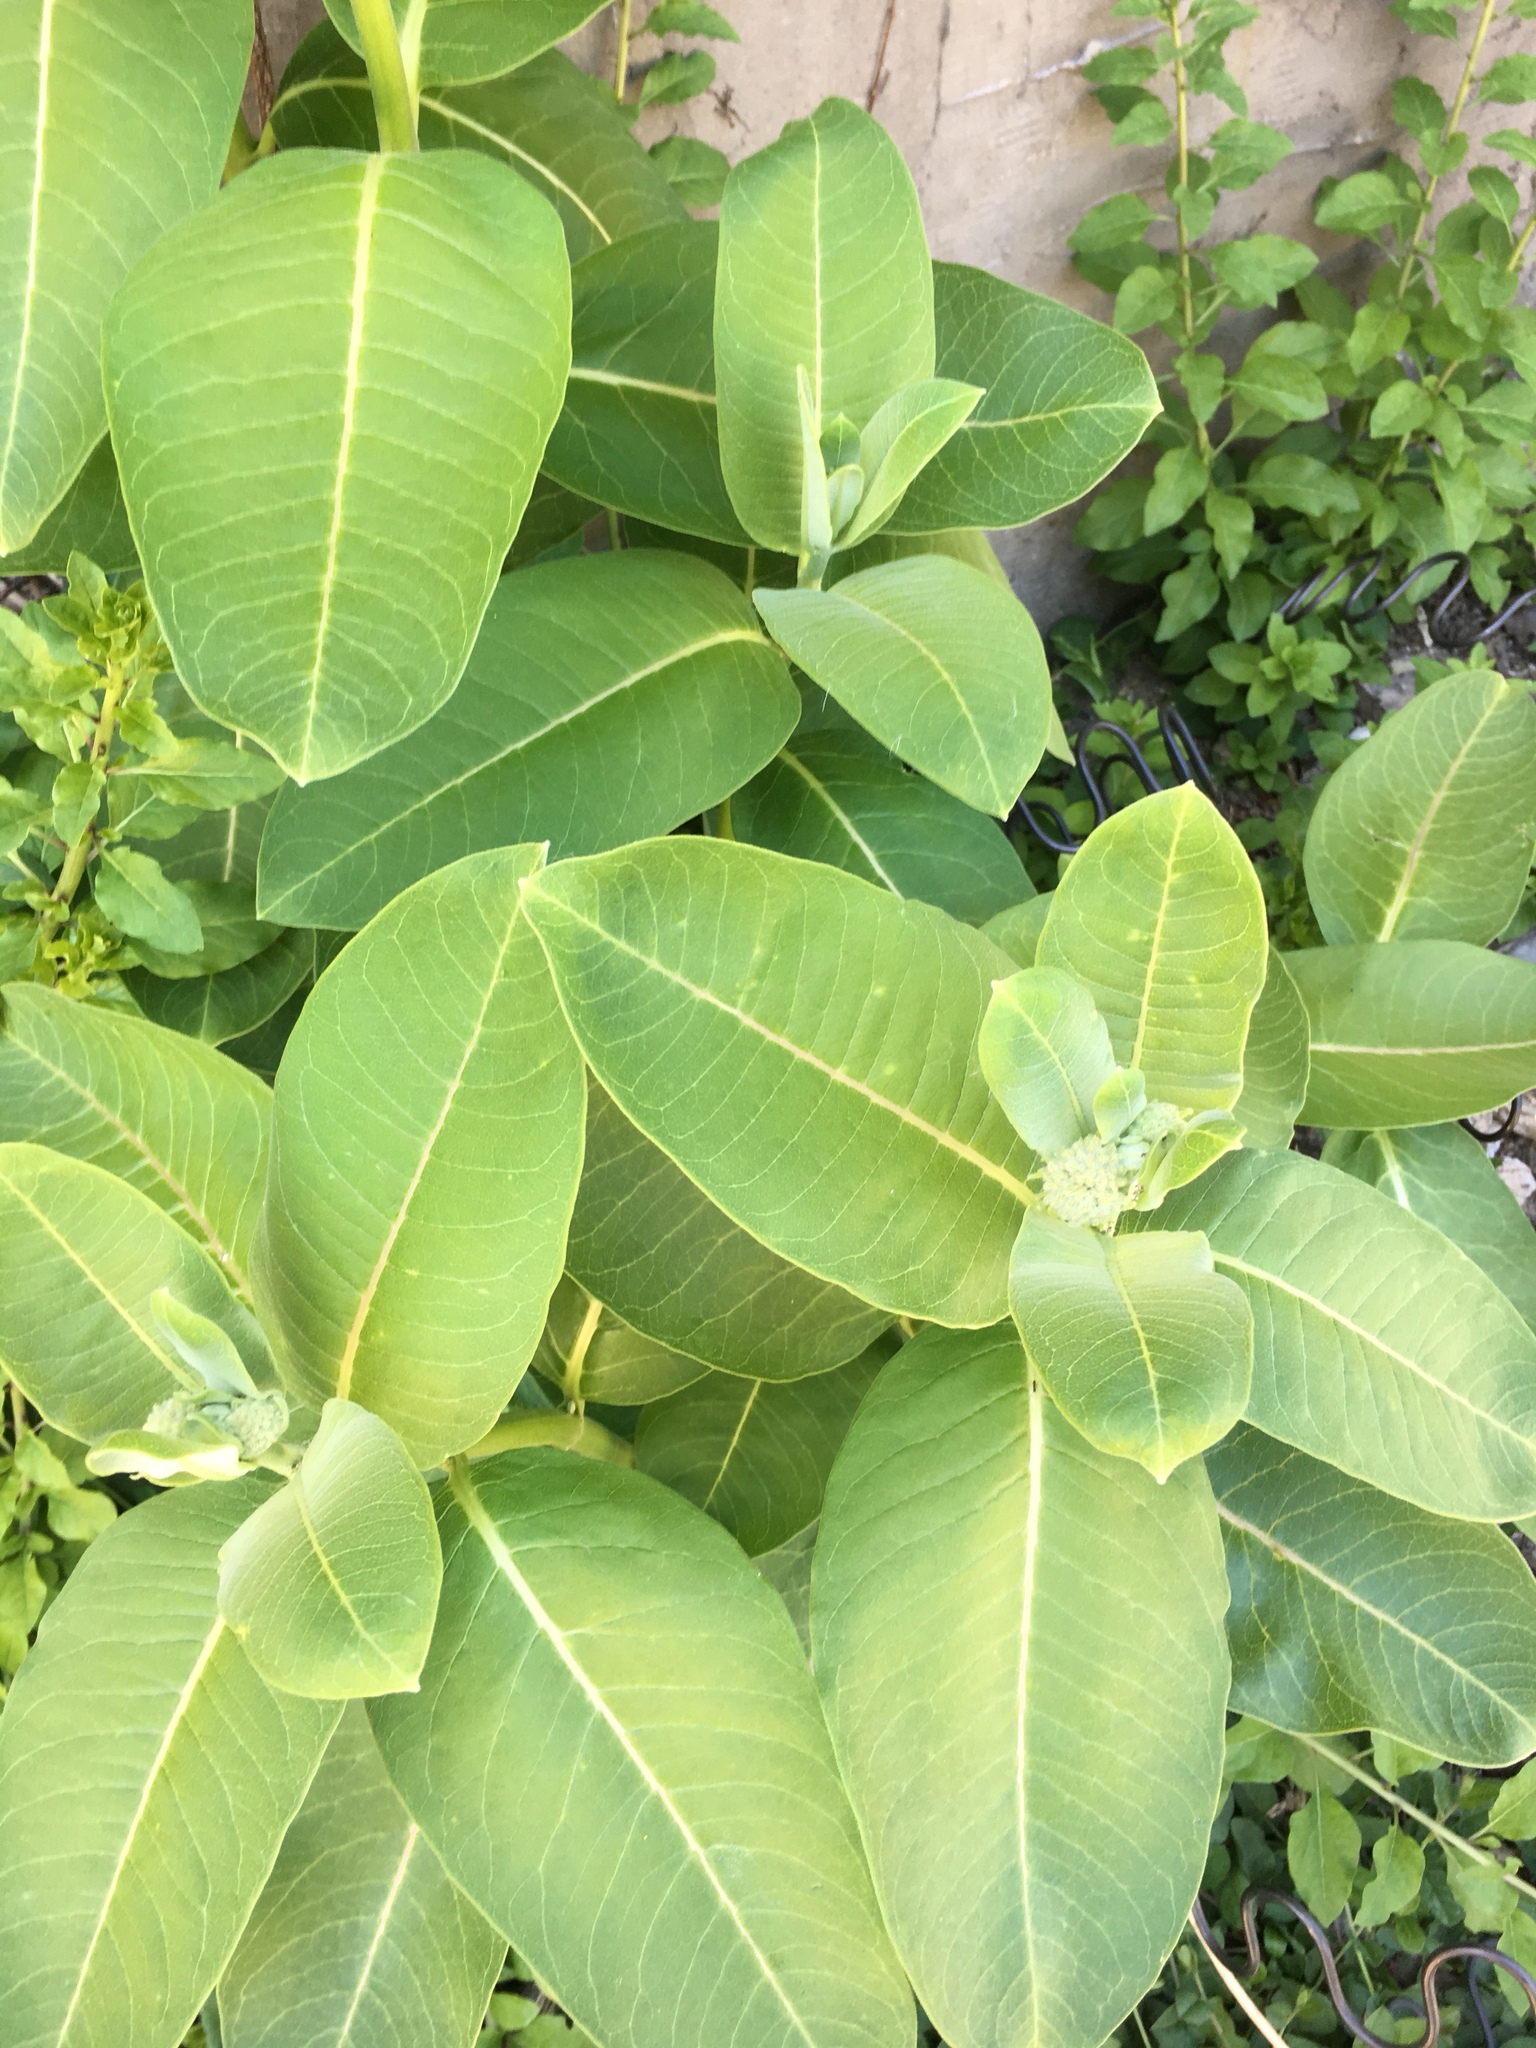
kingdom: Plantae
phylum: Tracheophyta
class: Magnoliopsida
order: Gentianales
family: Apocynaceae
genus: Asclepias
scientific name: Asclepias syriaca
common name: Common milkweed
